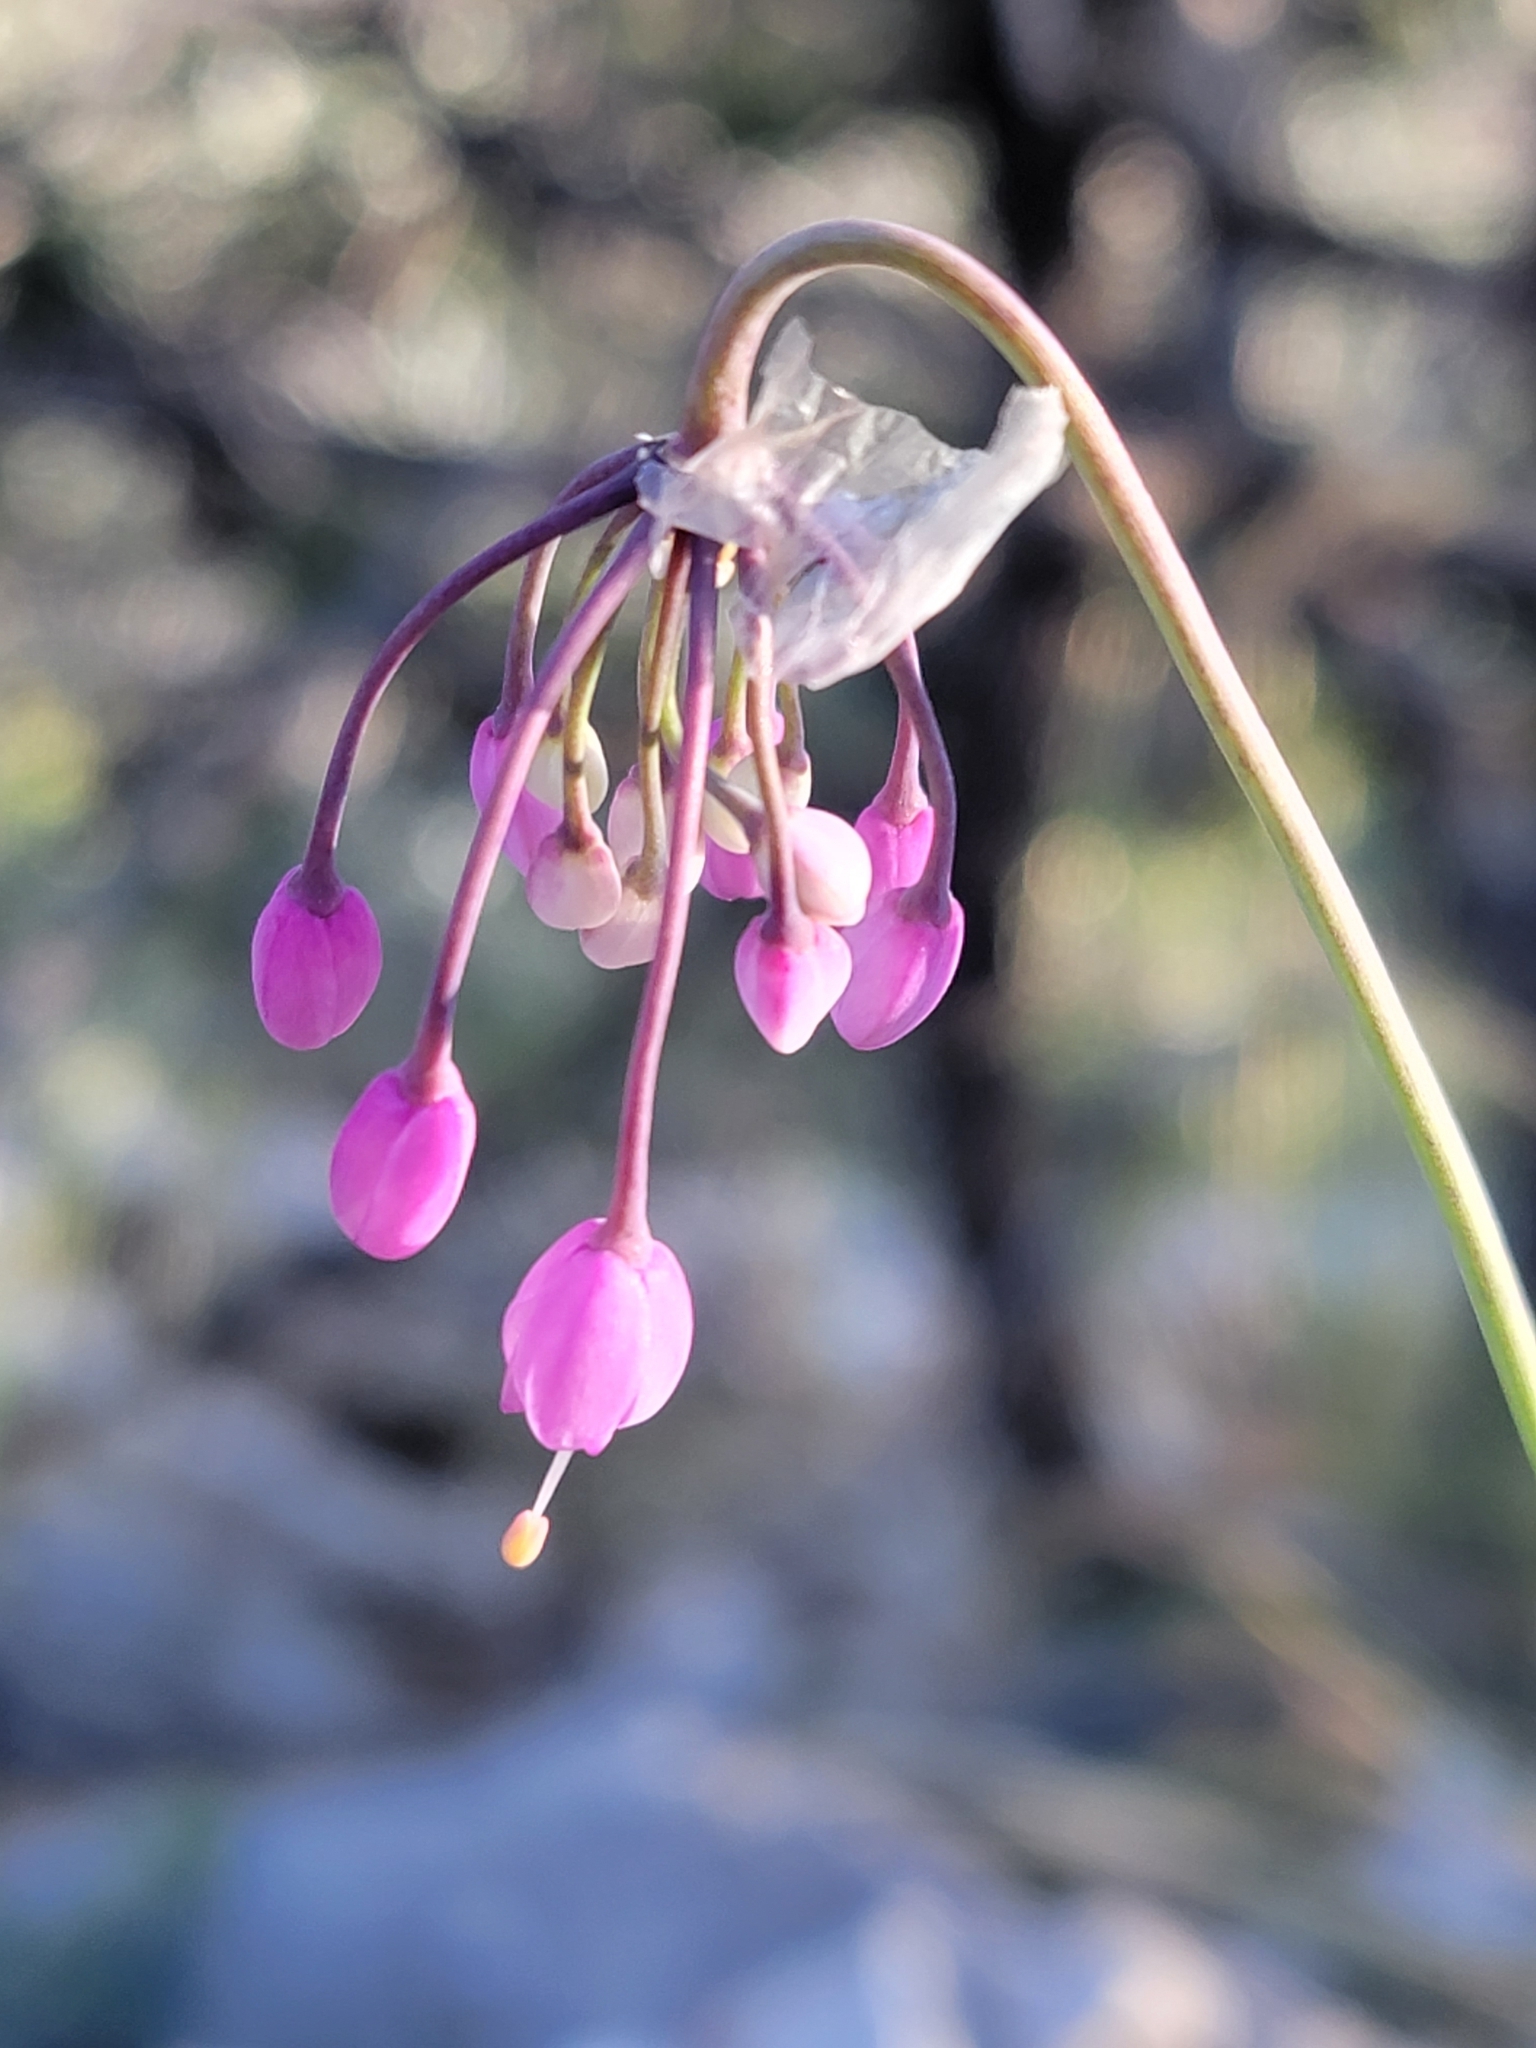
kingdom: Plantae
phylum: Tracheophyta
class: Liliopsida
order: Asparagales
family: Amaryllidaceae
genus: Allium
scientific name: Allium cernuum
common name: Nodding onion
